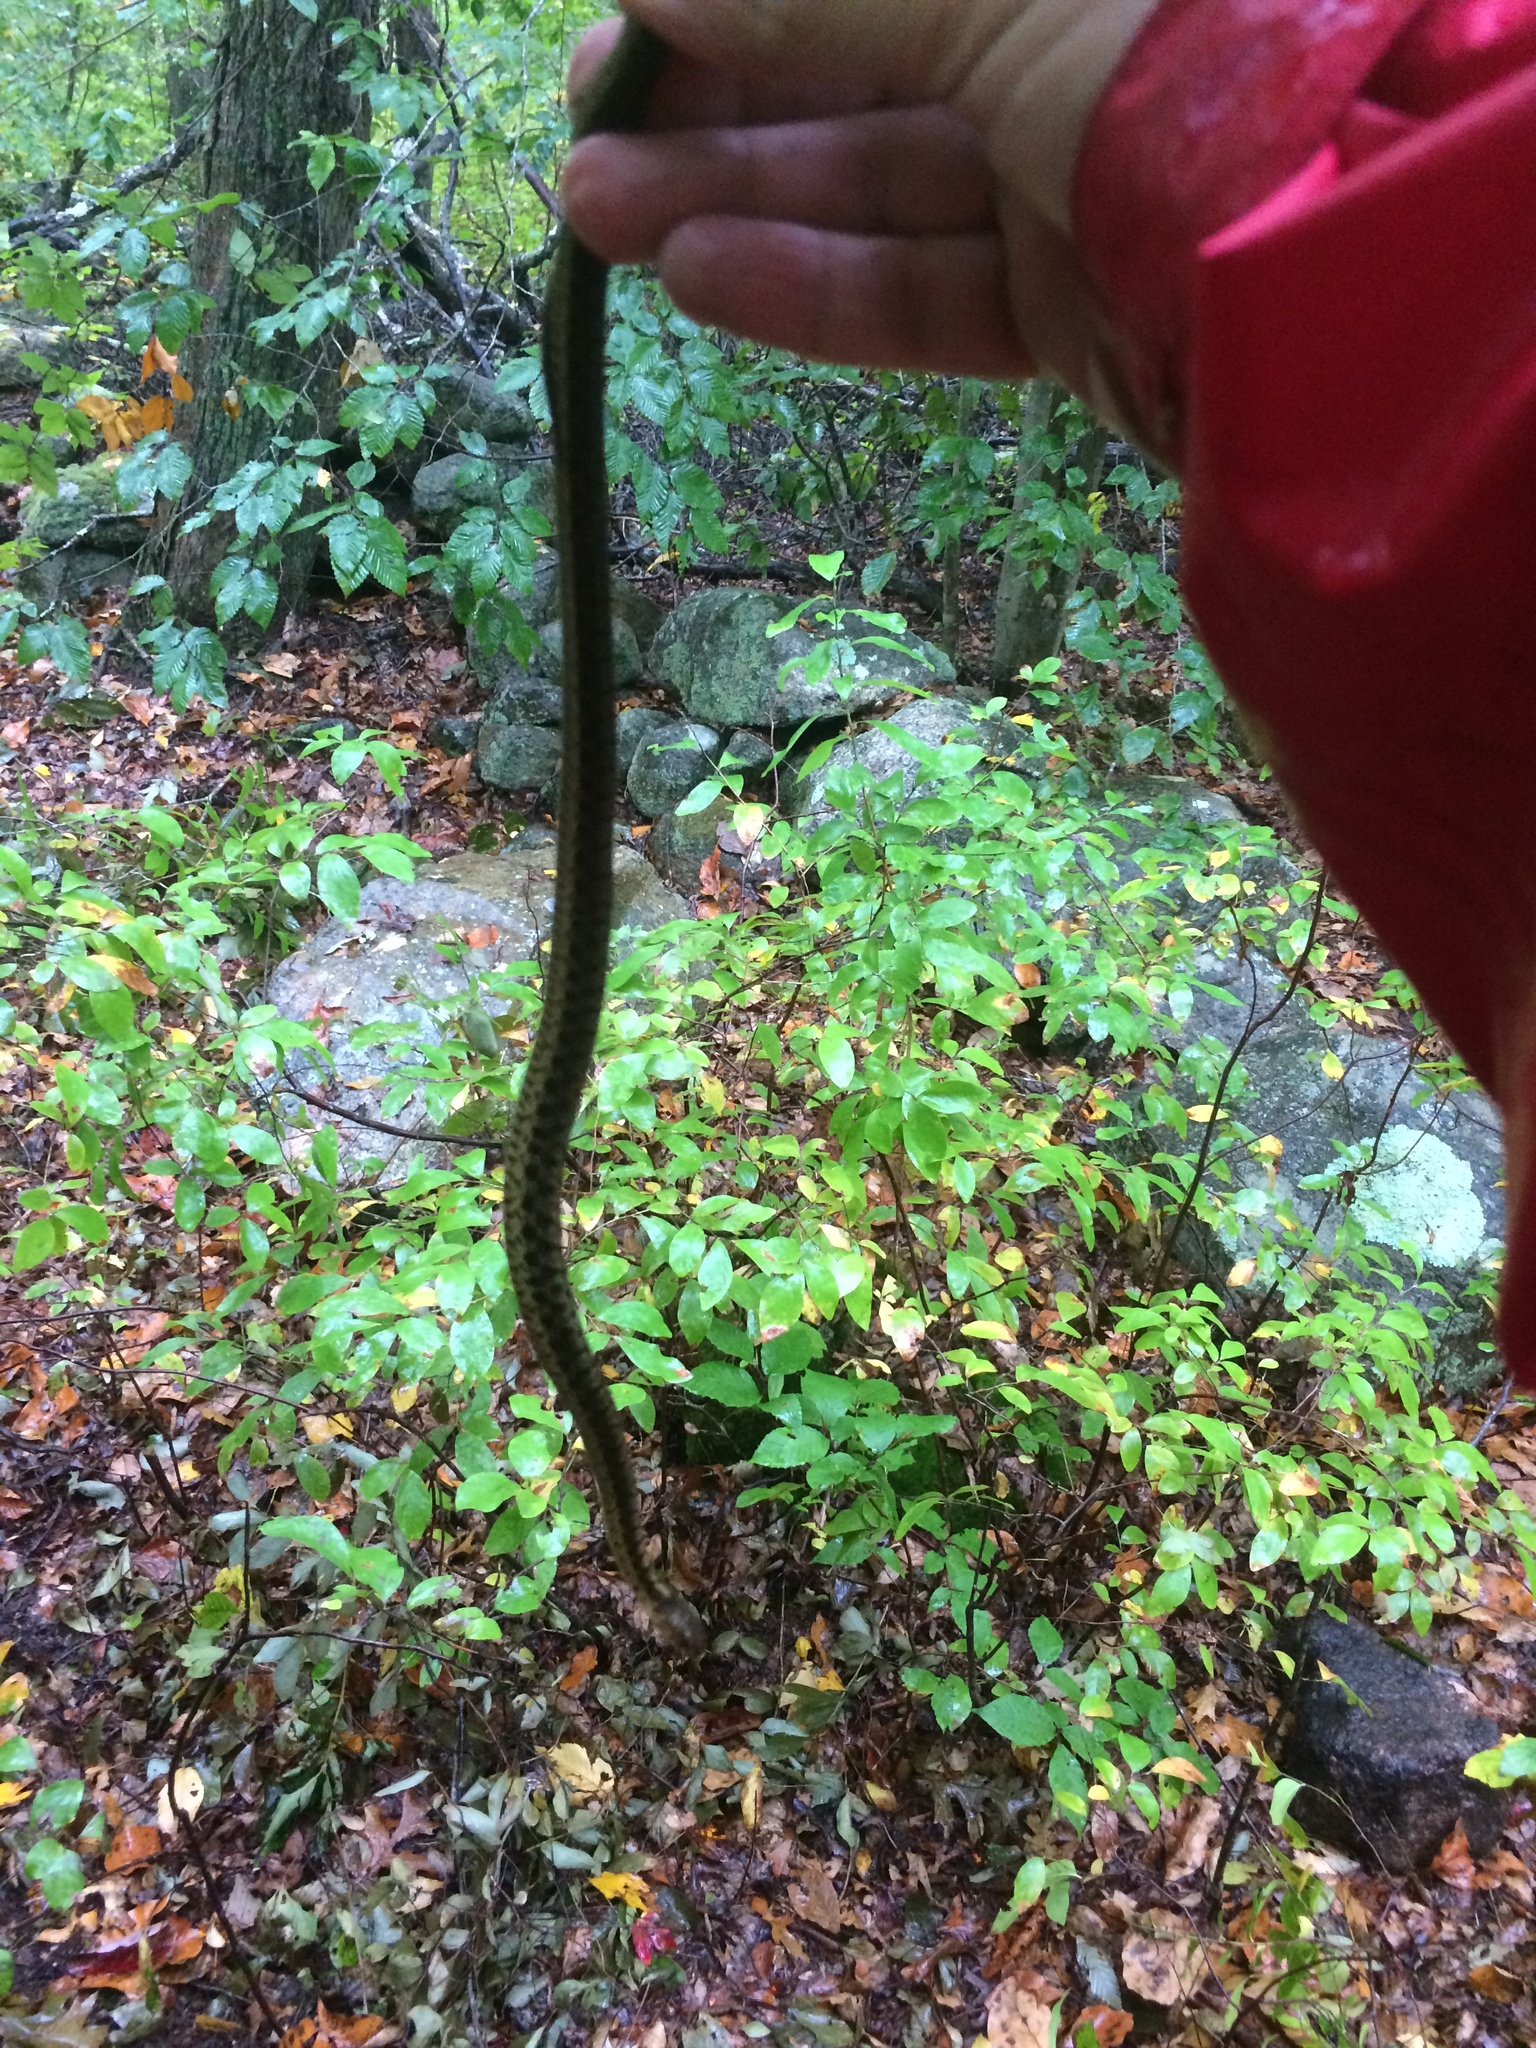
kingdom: Animalia
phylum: Chordata
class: Squamata
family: Colubridae
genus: Thamnophis
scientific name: Thamnophis sirtalis
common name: Common garter snake
